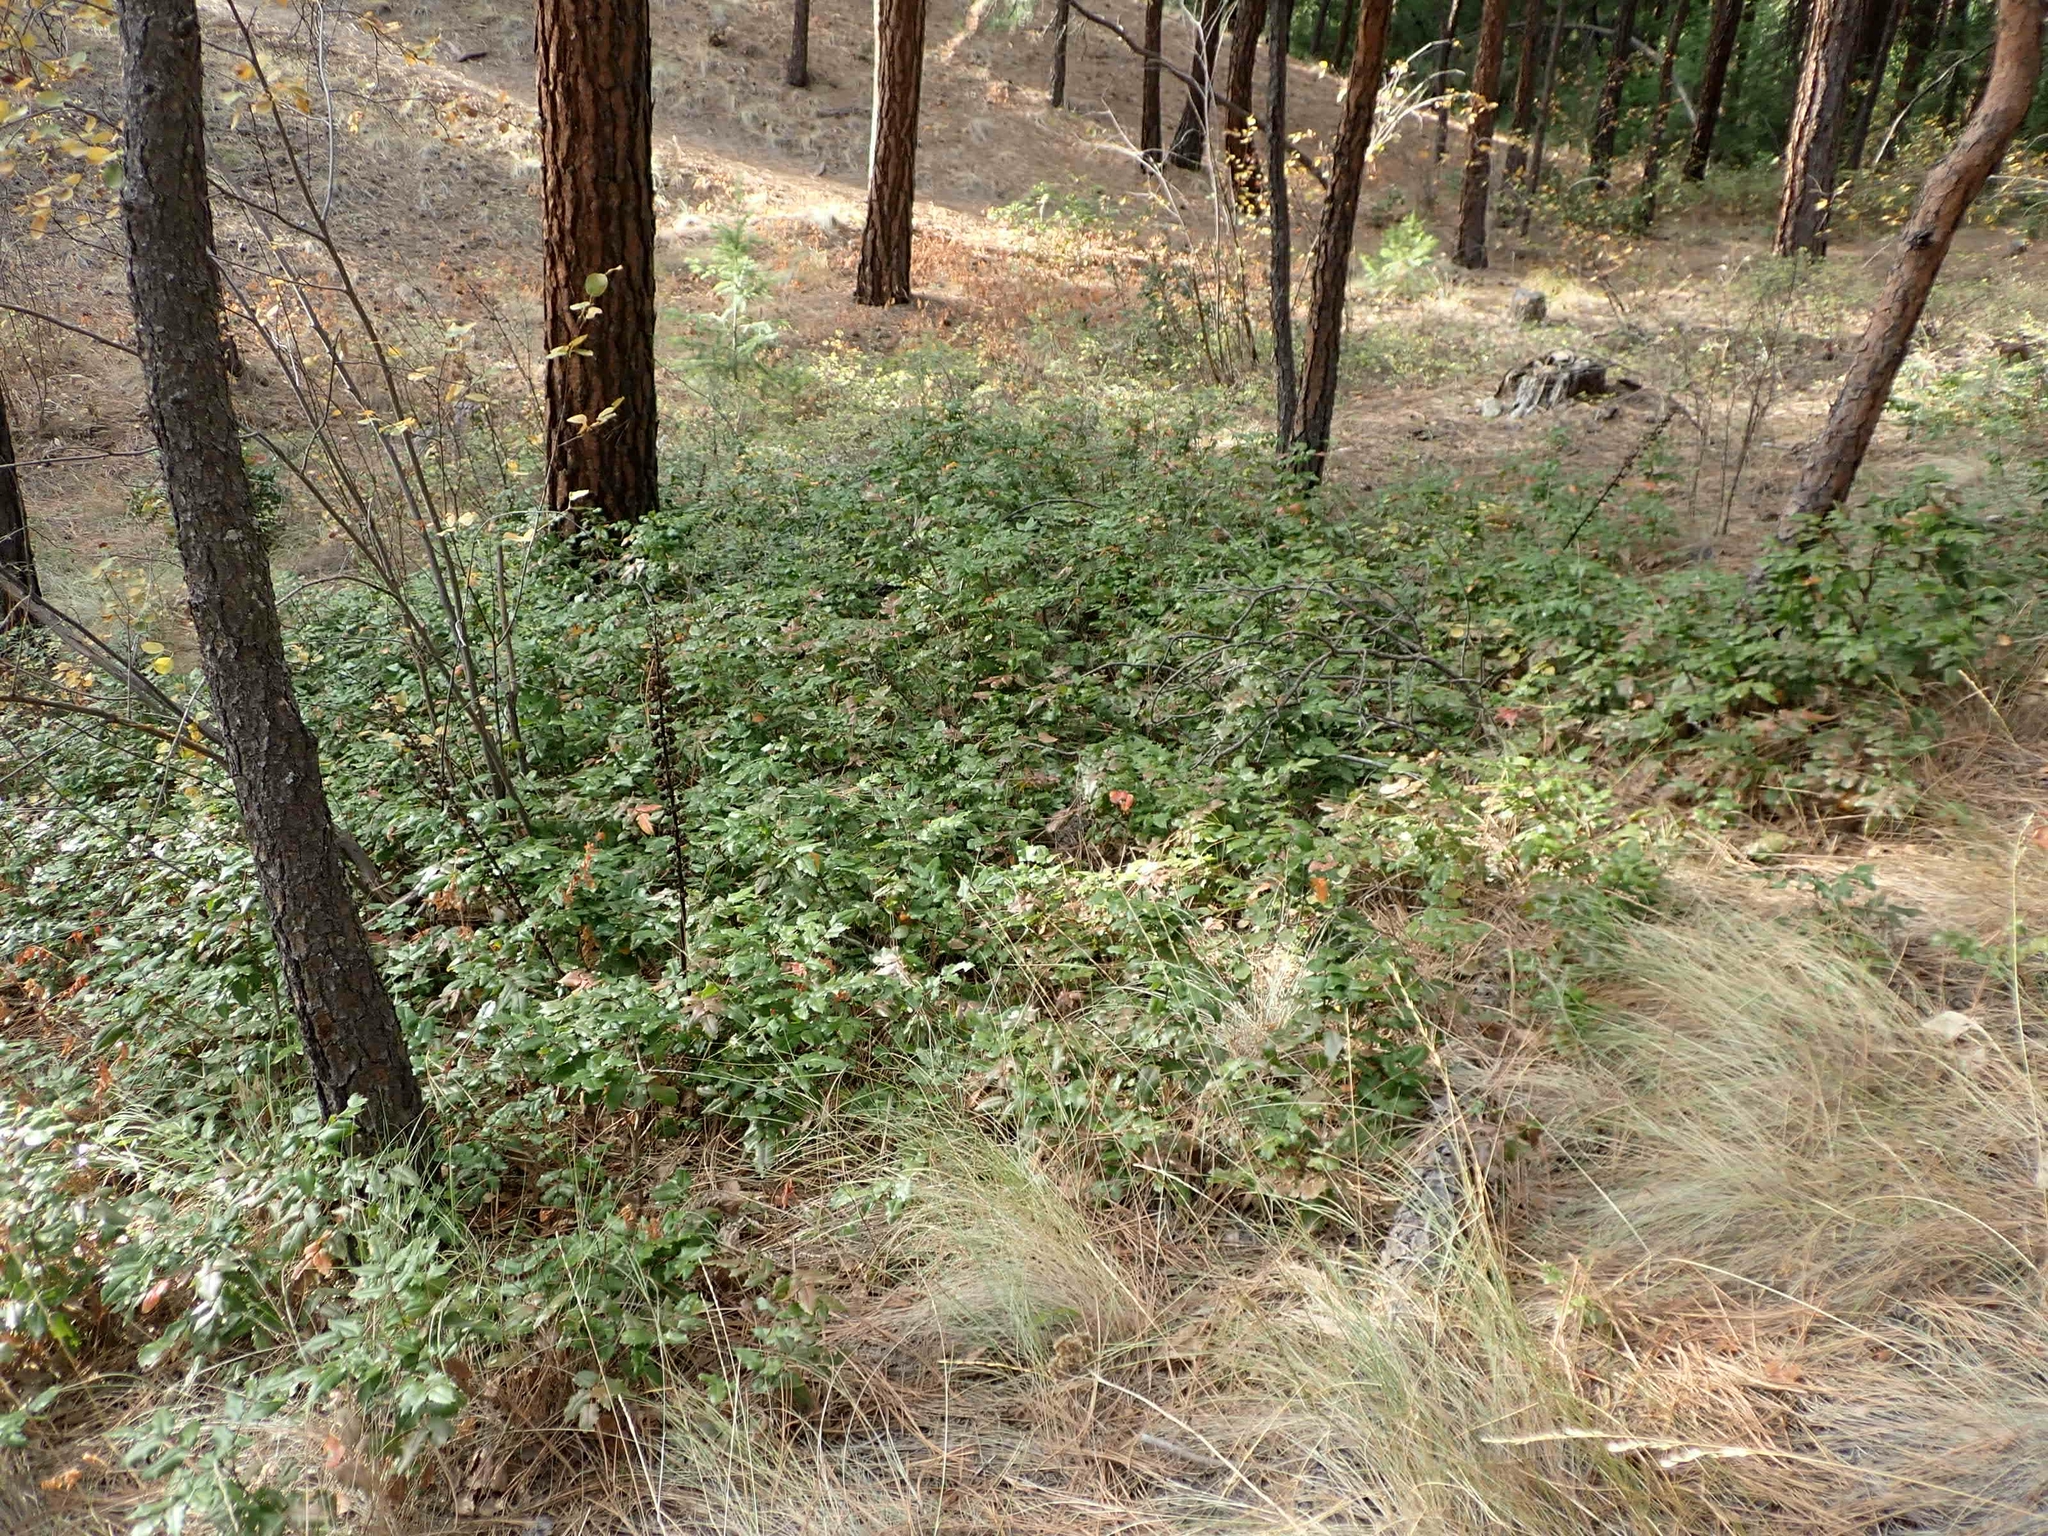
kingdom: Plantae
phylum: Tracheophyta
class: Magnoliopsida
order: Ericales
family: Ericaceae
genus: Pterospora
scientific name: Pterospora andromedea
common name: Giant bird's-nest
